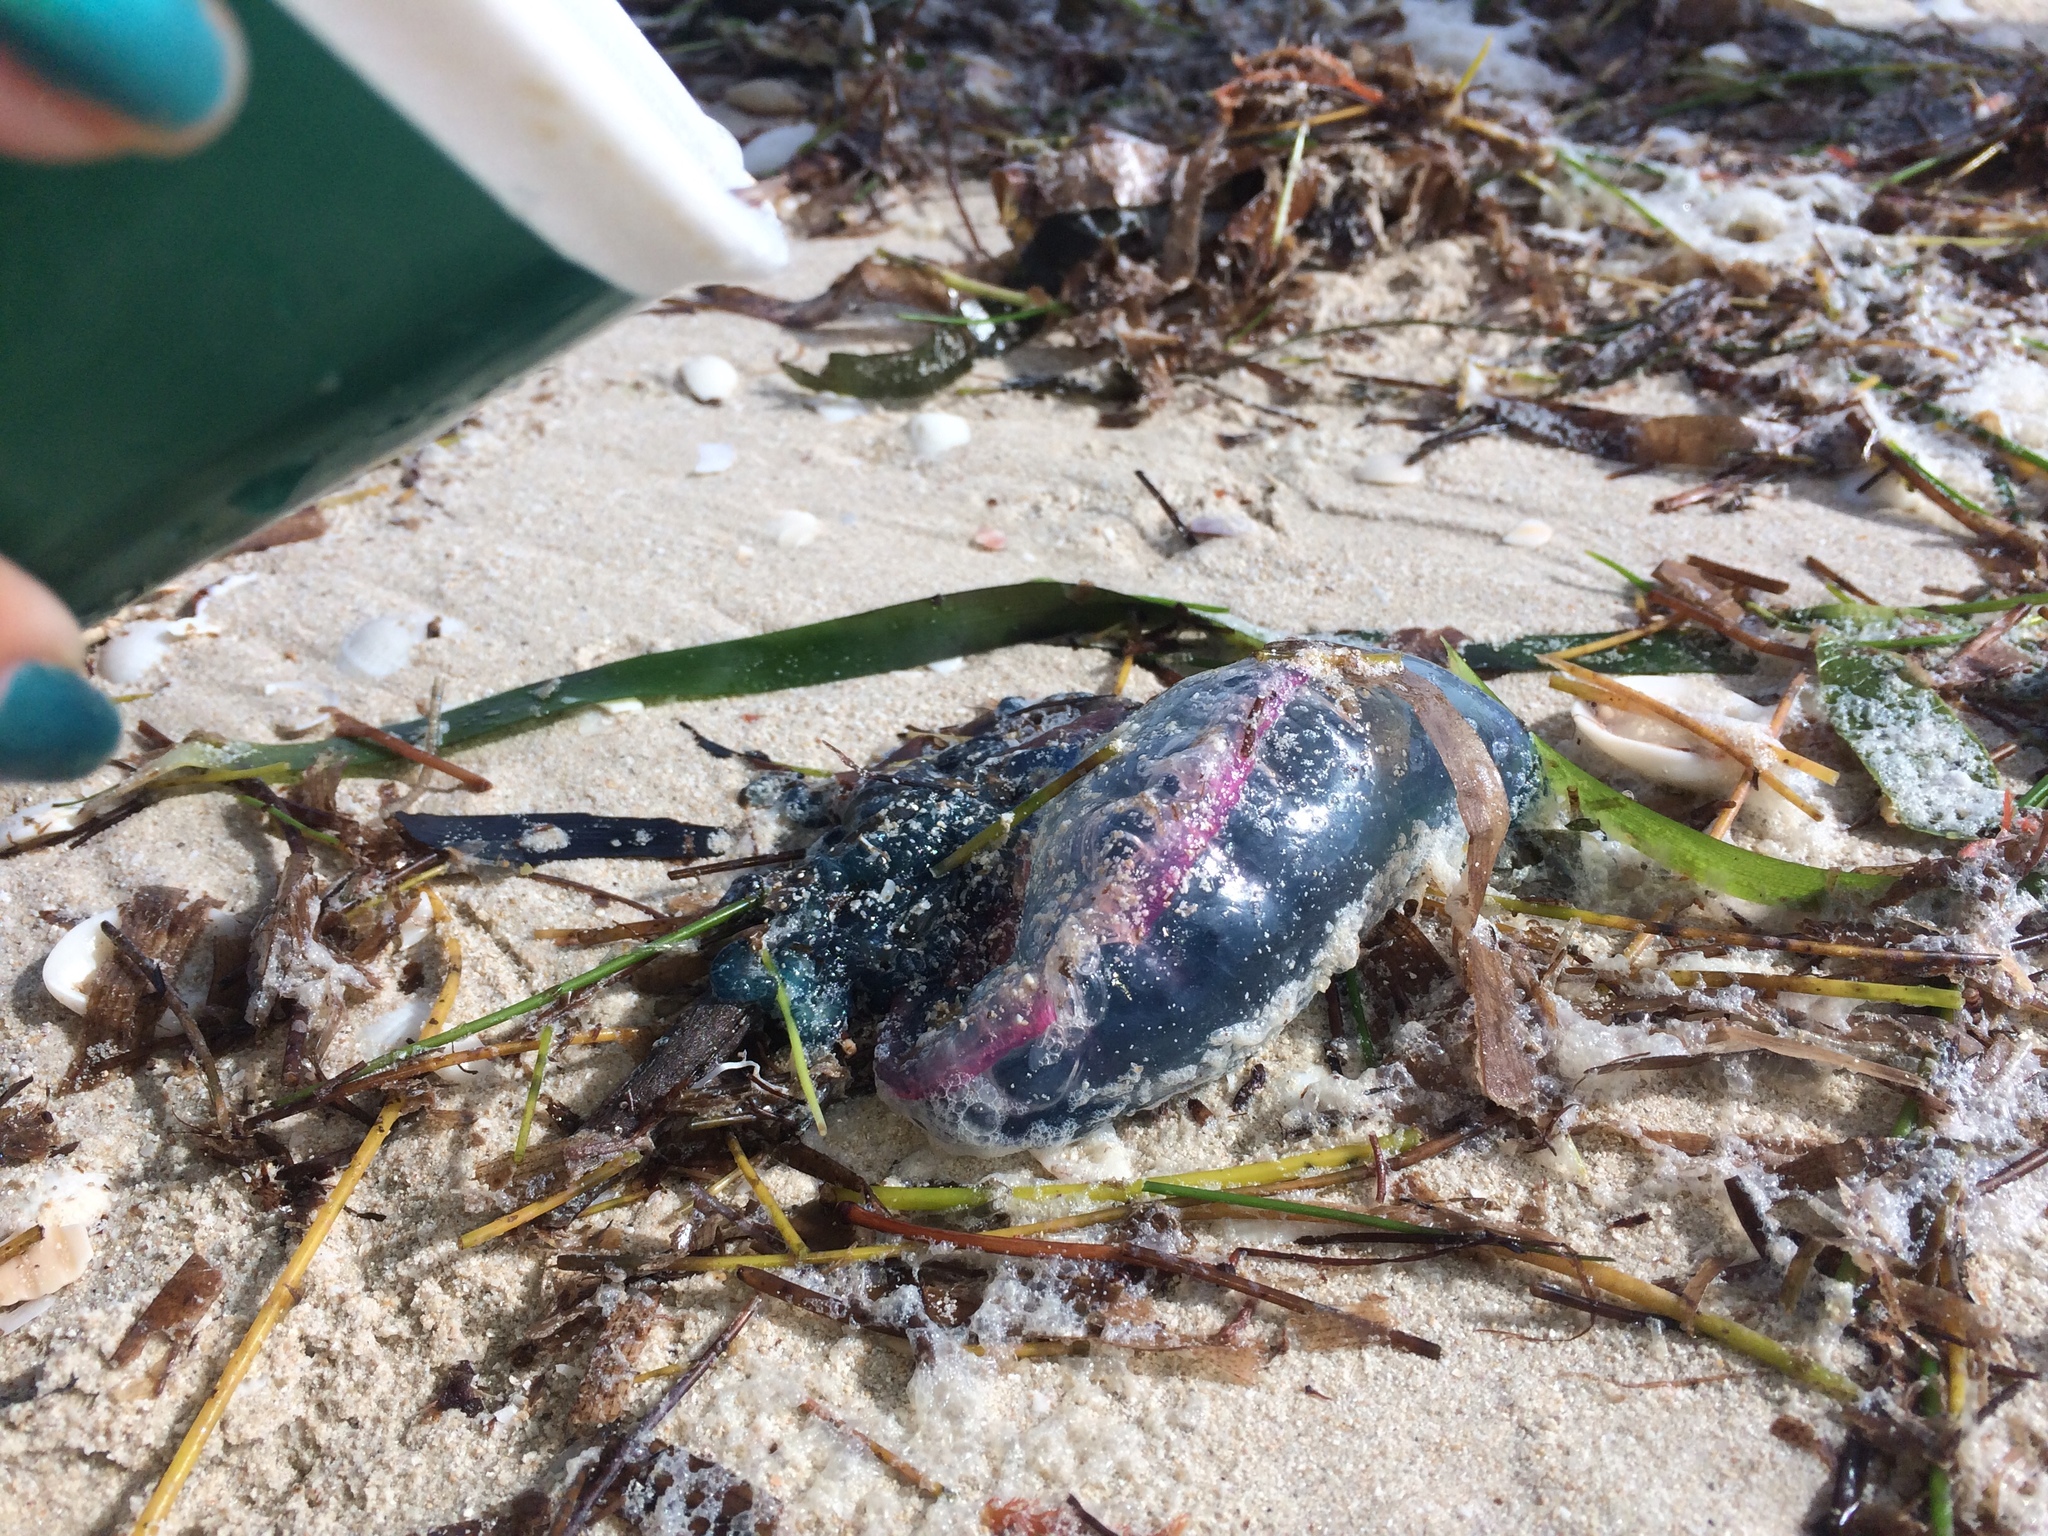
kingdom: Animalia
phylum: Cnidaria
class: Hydrozoa
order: Siphonophorae
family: Physaliidae
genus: Physalia
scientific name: Physalia physalis
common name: Portuguese man-of-war
